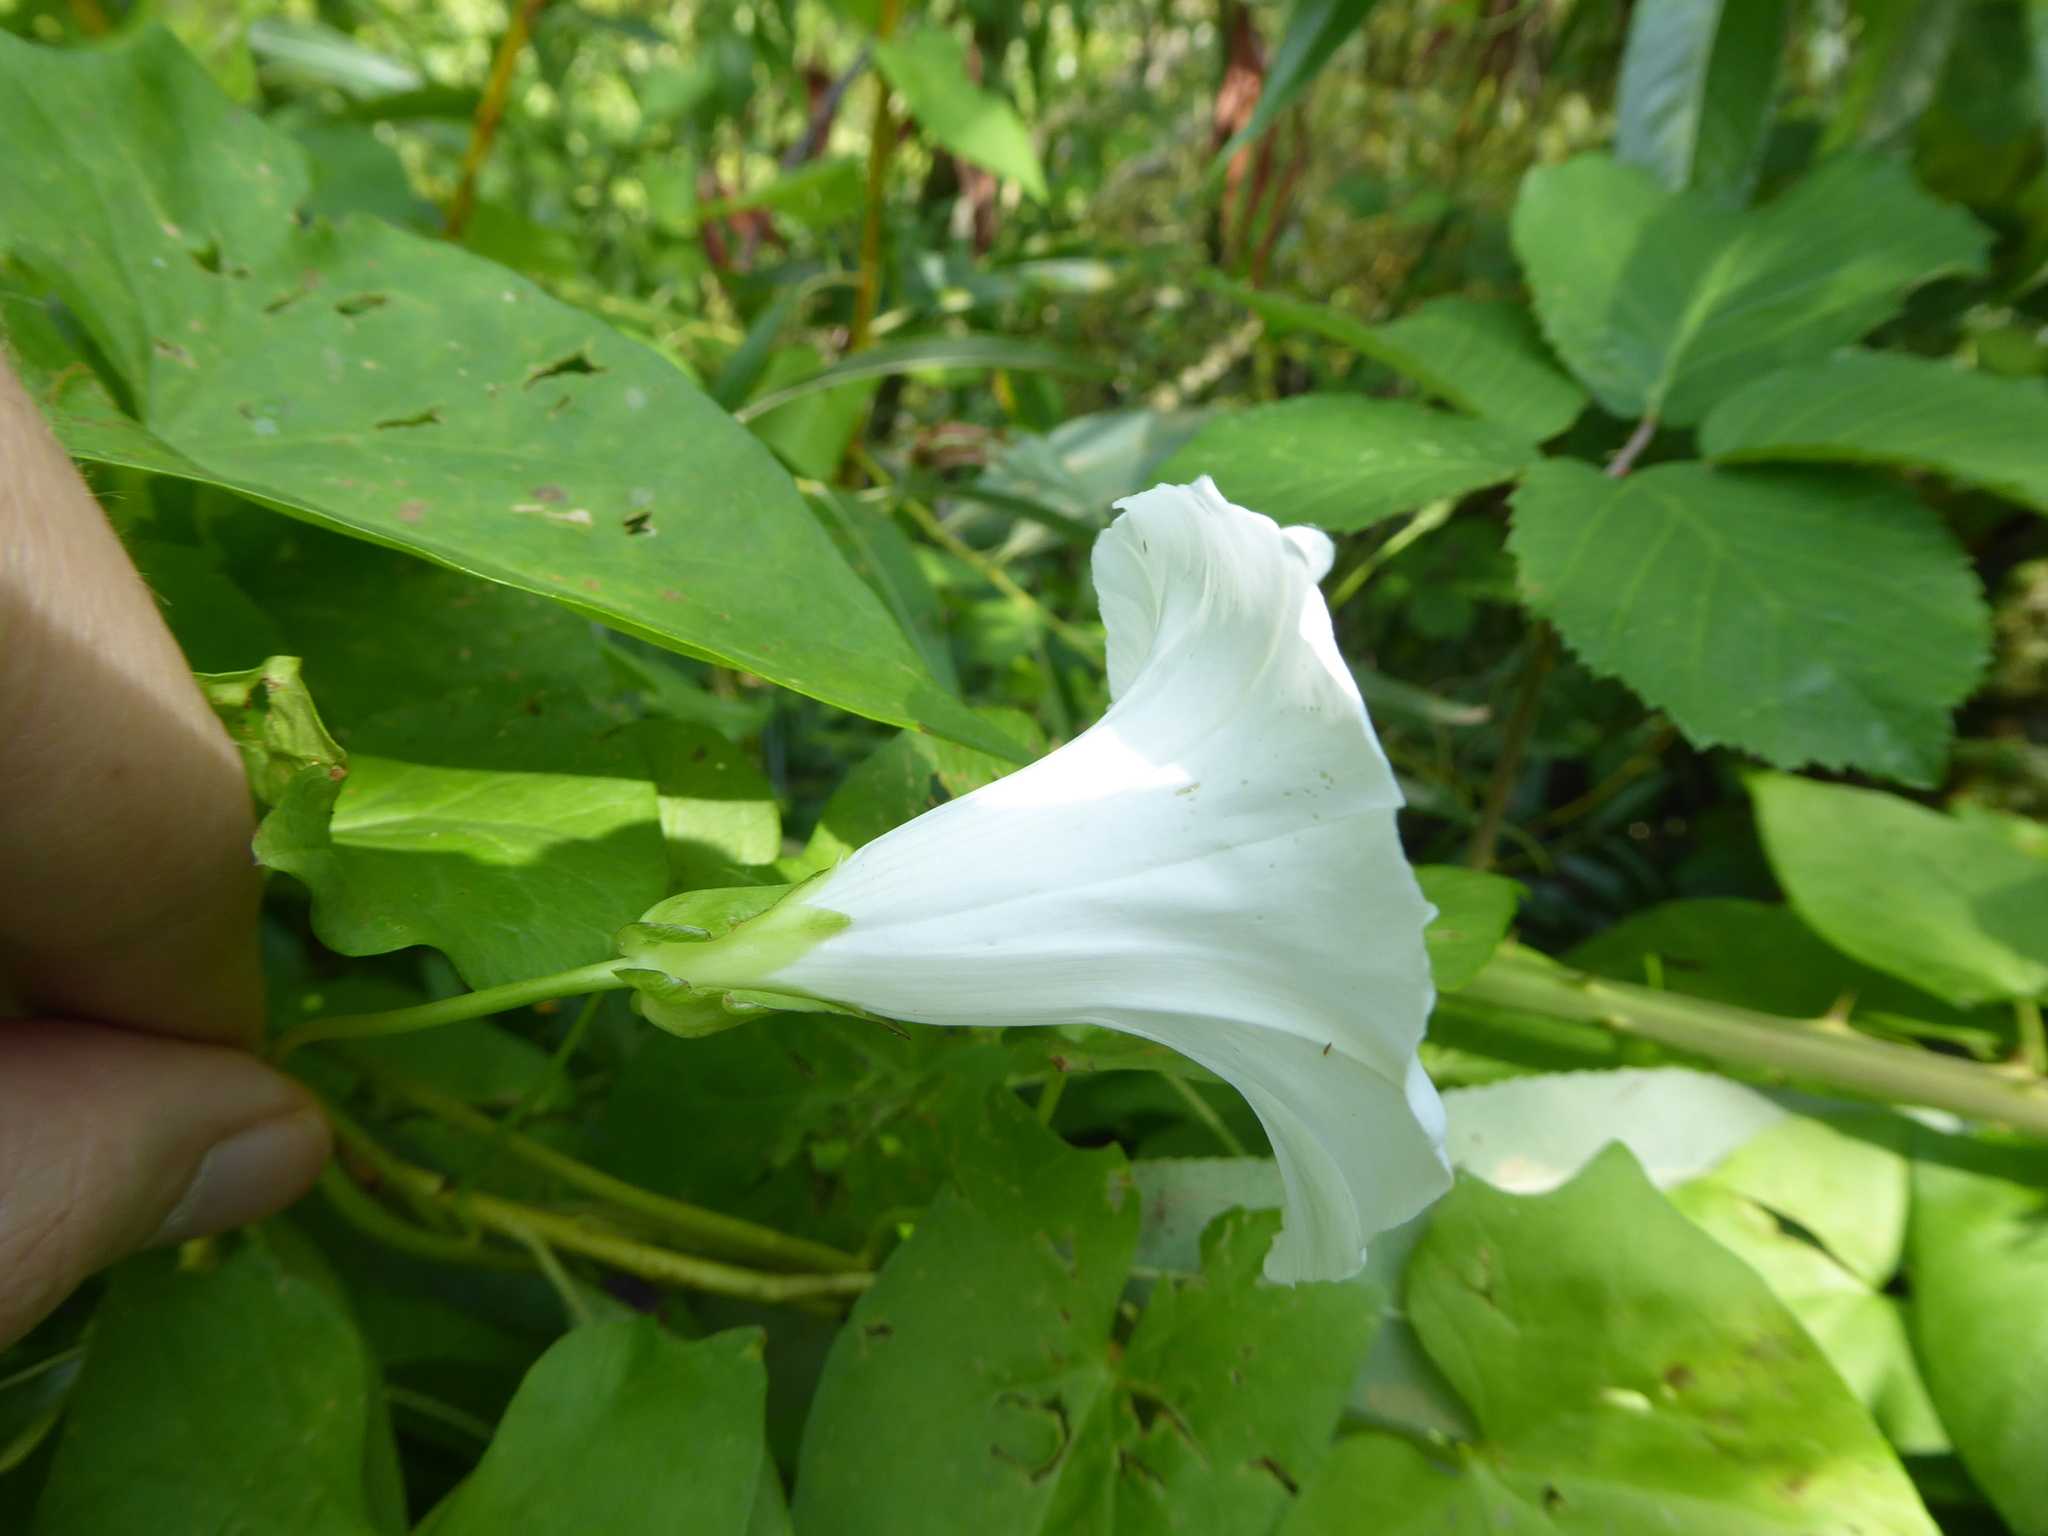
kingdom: Plantae
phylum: Tracheophyta
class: Magnoliopsida
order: Solanales
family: Convolvulaceae
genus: Calystegia
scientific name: Calystegia sepium
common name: Hedge bindweed
